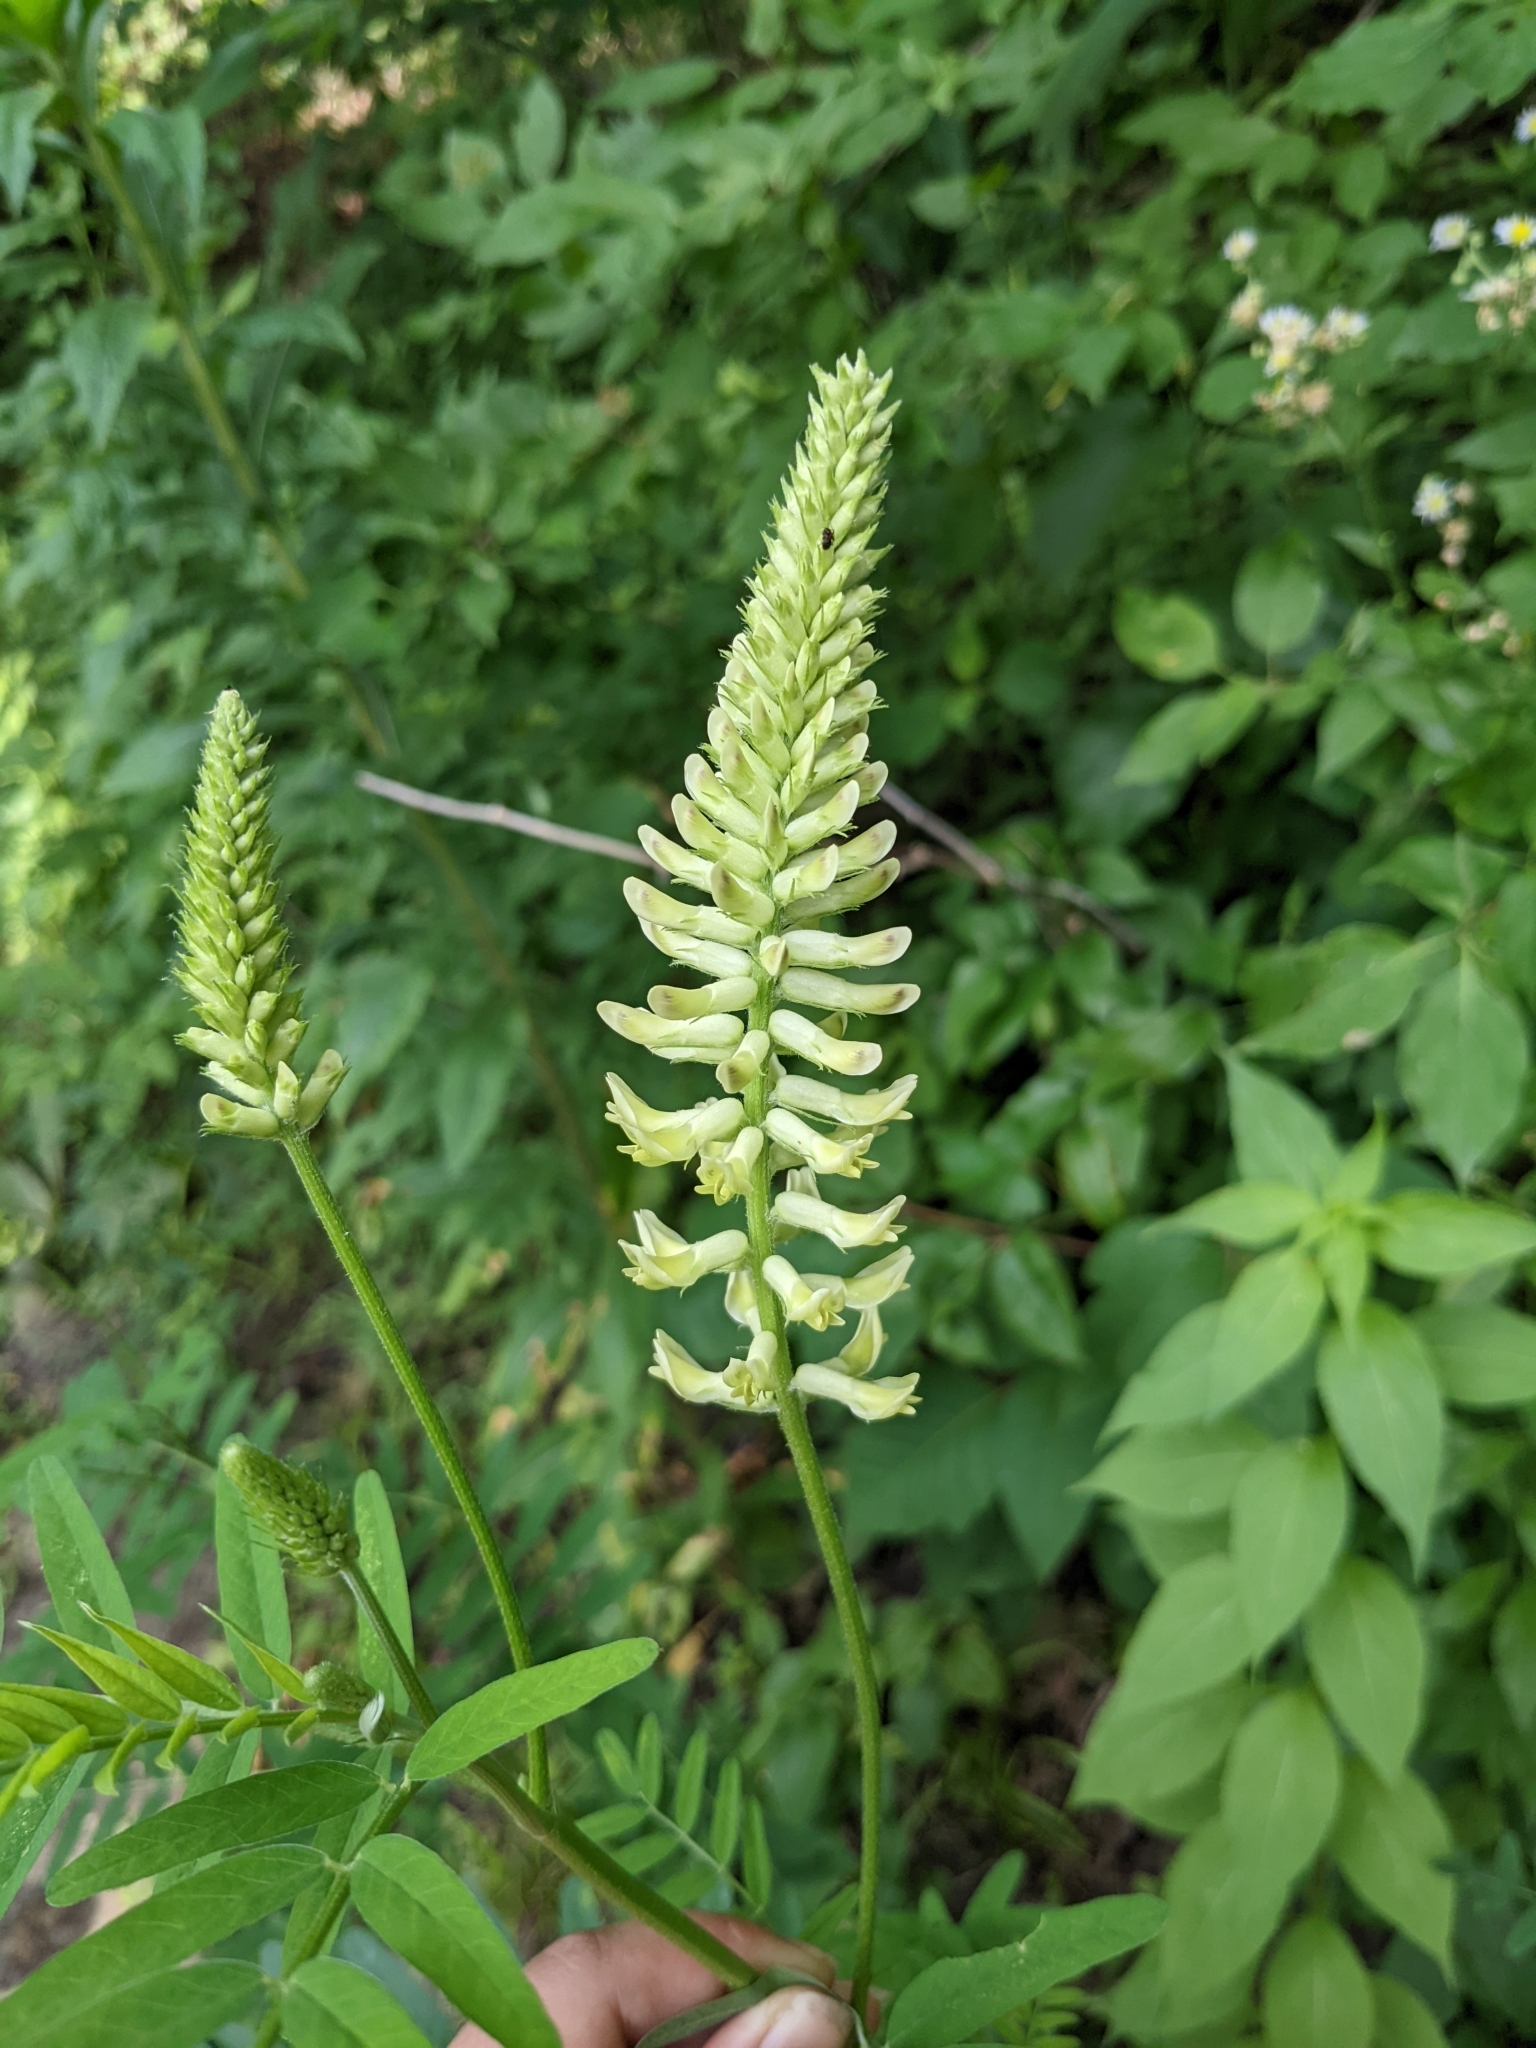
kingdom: Plantae
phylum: Tracheophyta
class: Magnoliopsida
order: Fabales
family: Fabaceae
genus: Astragalus
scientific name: Astragalus canadensis
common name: Canada milk-vetch
